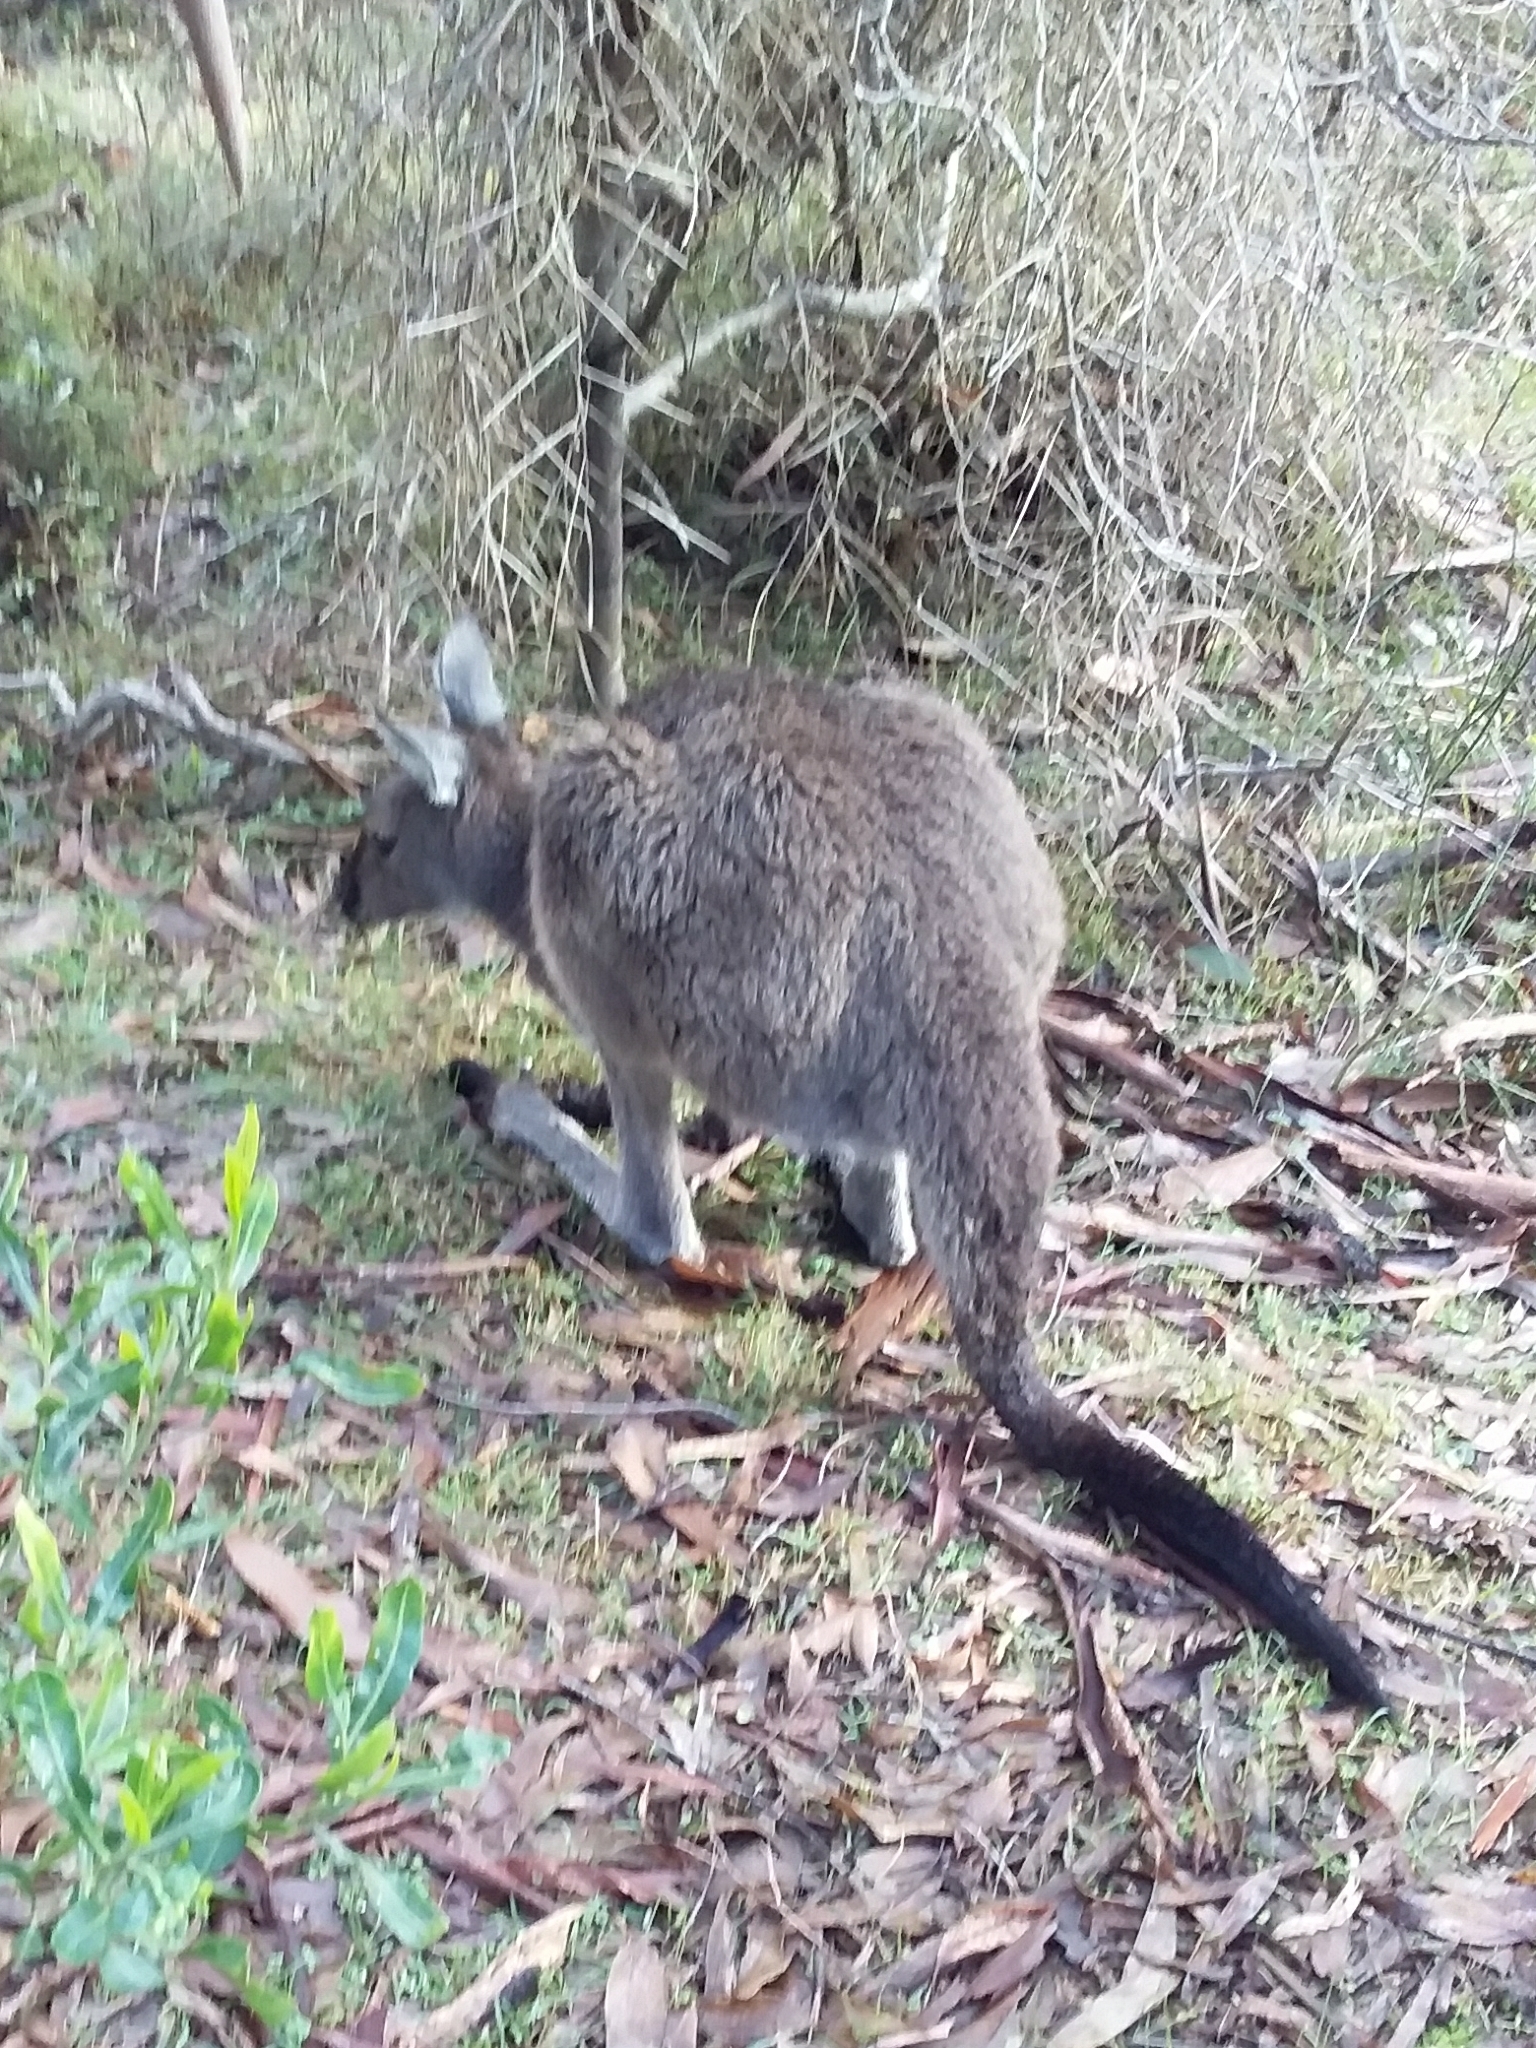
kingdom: Animalia
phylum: Chordata
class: Mammalia
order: Diprotodontia
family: Macropodidae
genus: Macropus
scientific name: Macropus fuliginosus
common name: Western grey kangaroo
